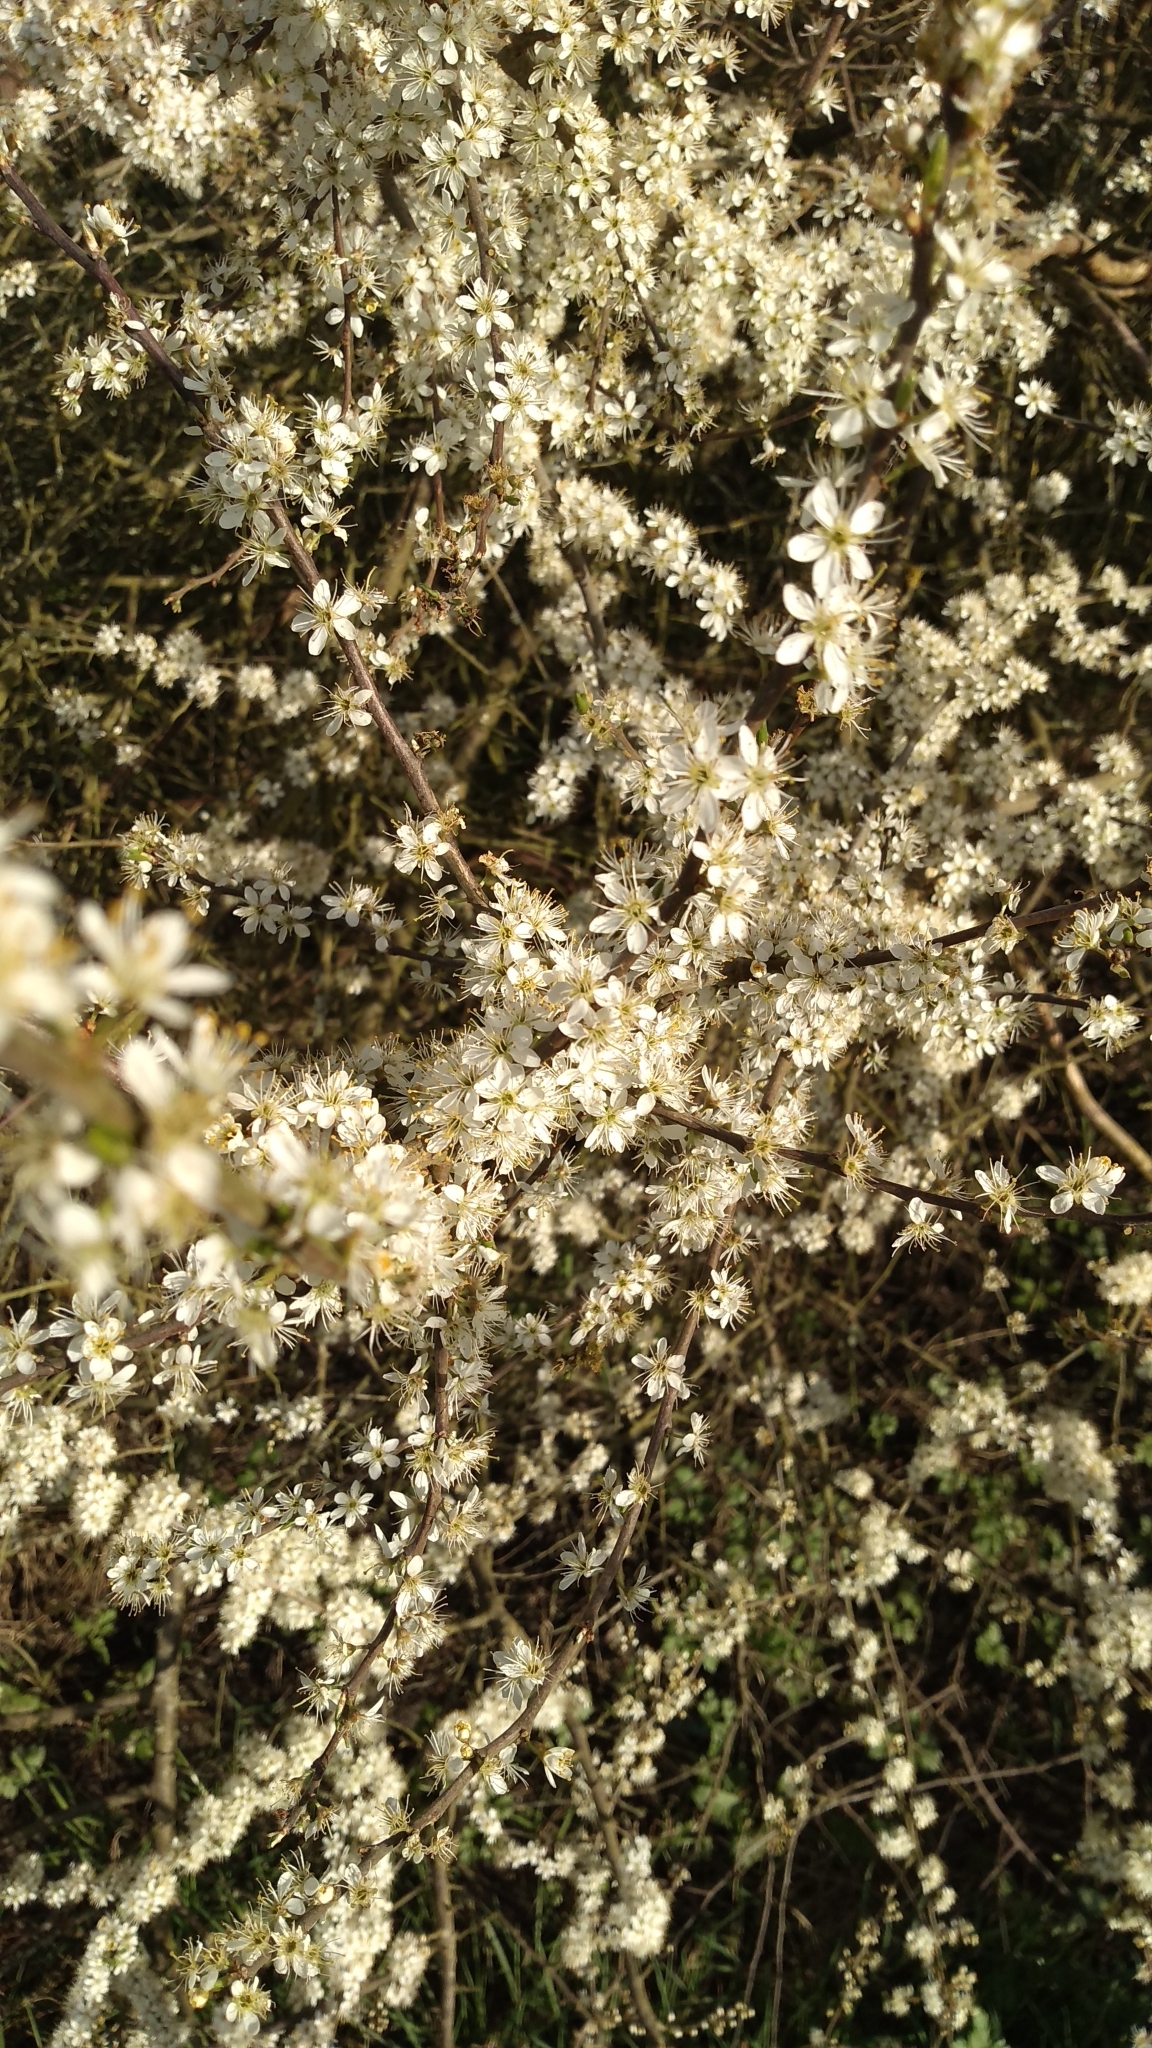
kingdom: Plantae
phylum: Tracheophyta
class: Magnoliopsida
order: Rosales
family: Rosaceae
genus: Prunus
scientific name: Prunus spinosa
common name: Blackthorn
